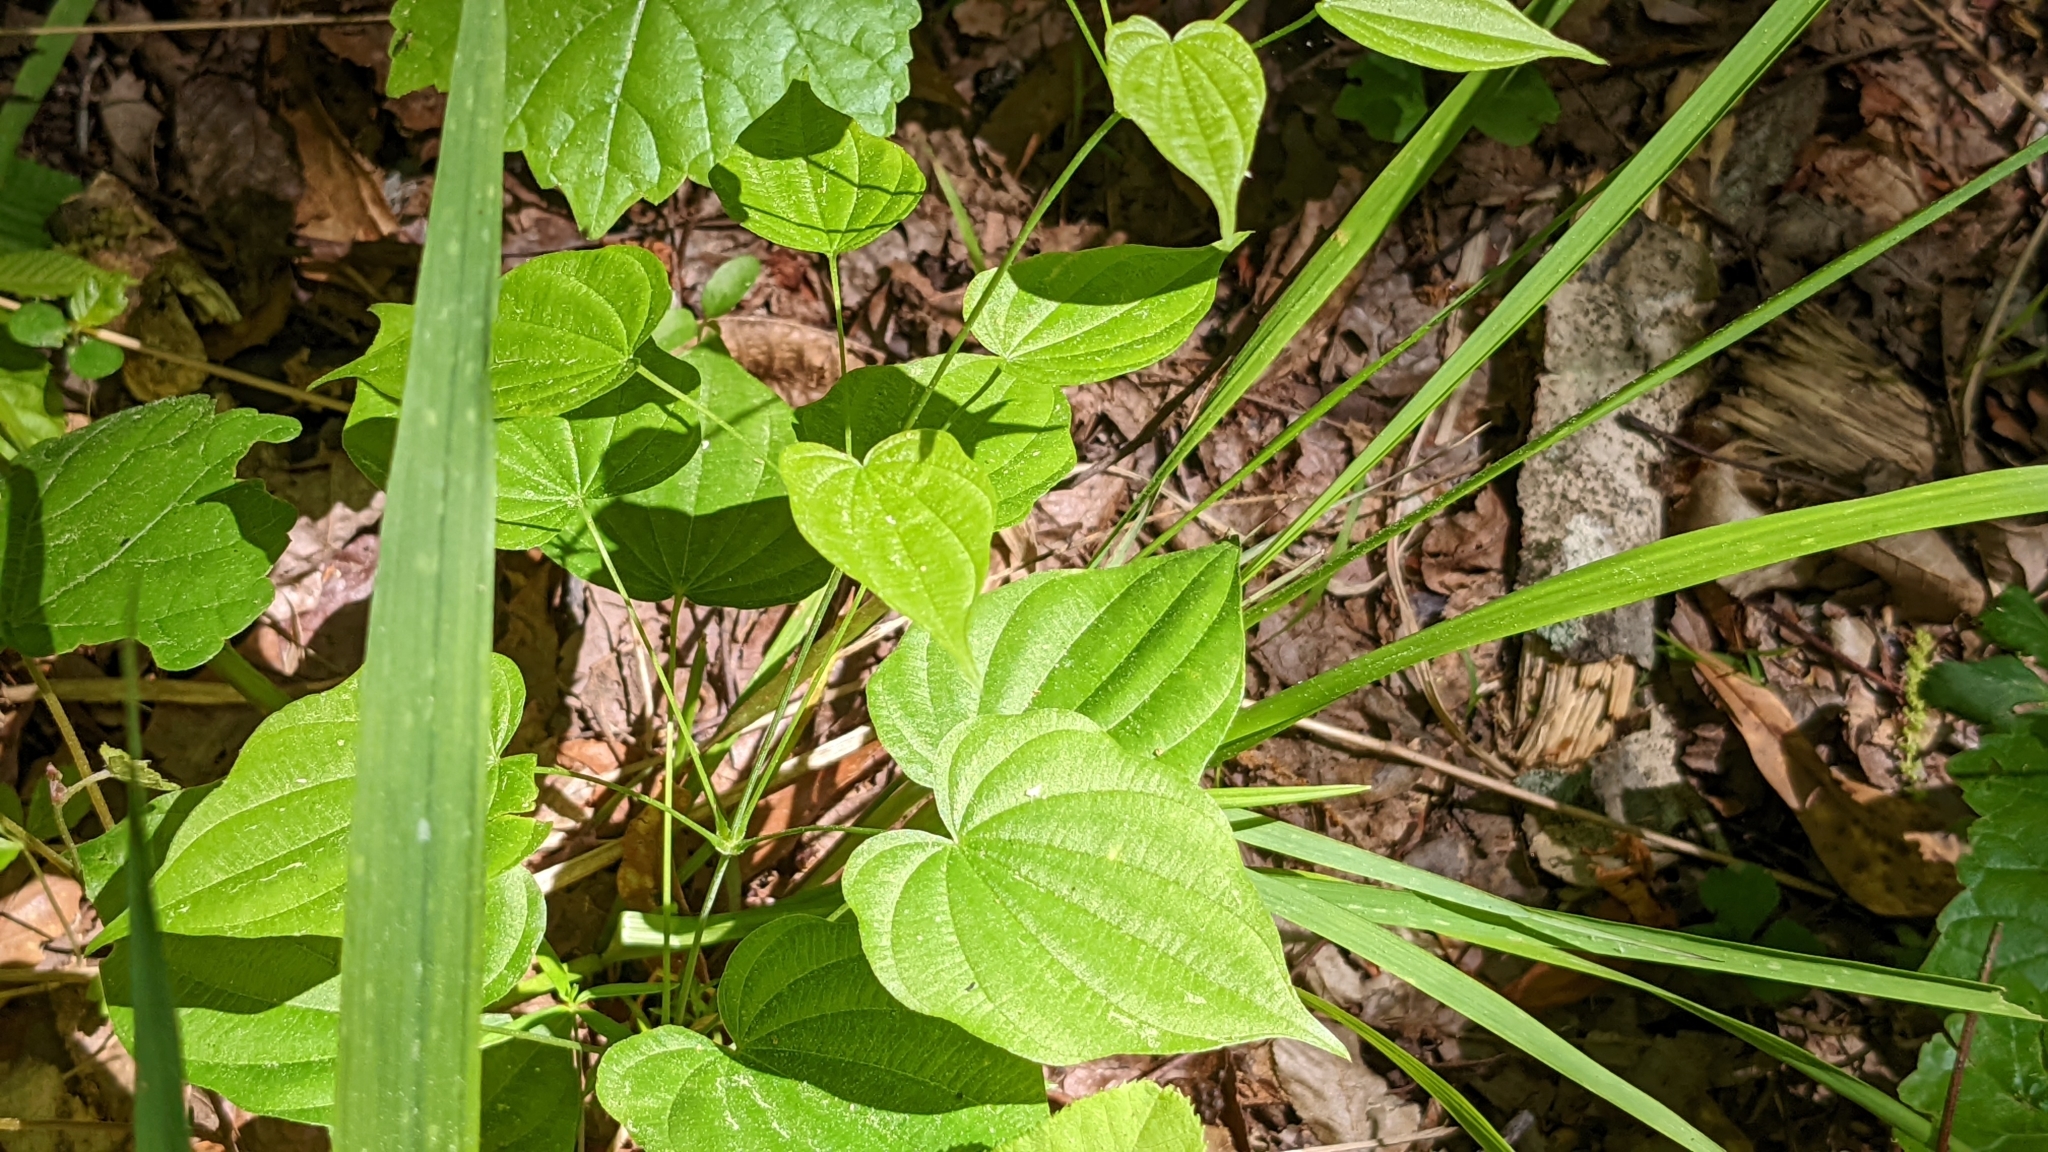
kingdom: Plantae
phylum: Tracheophyta
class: Liliopsida
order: Dioscoreales
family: Dioscoreaceae
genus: Dioscorea
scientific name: Dioscorea villosa
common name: Wild yam
